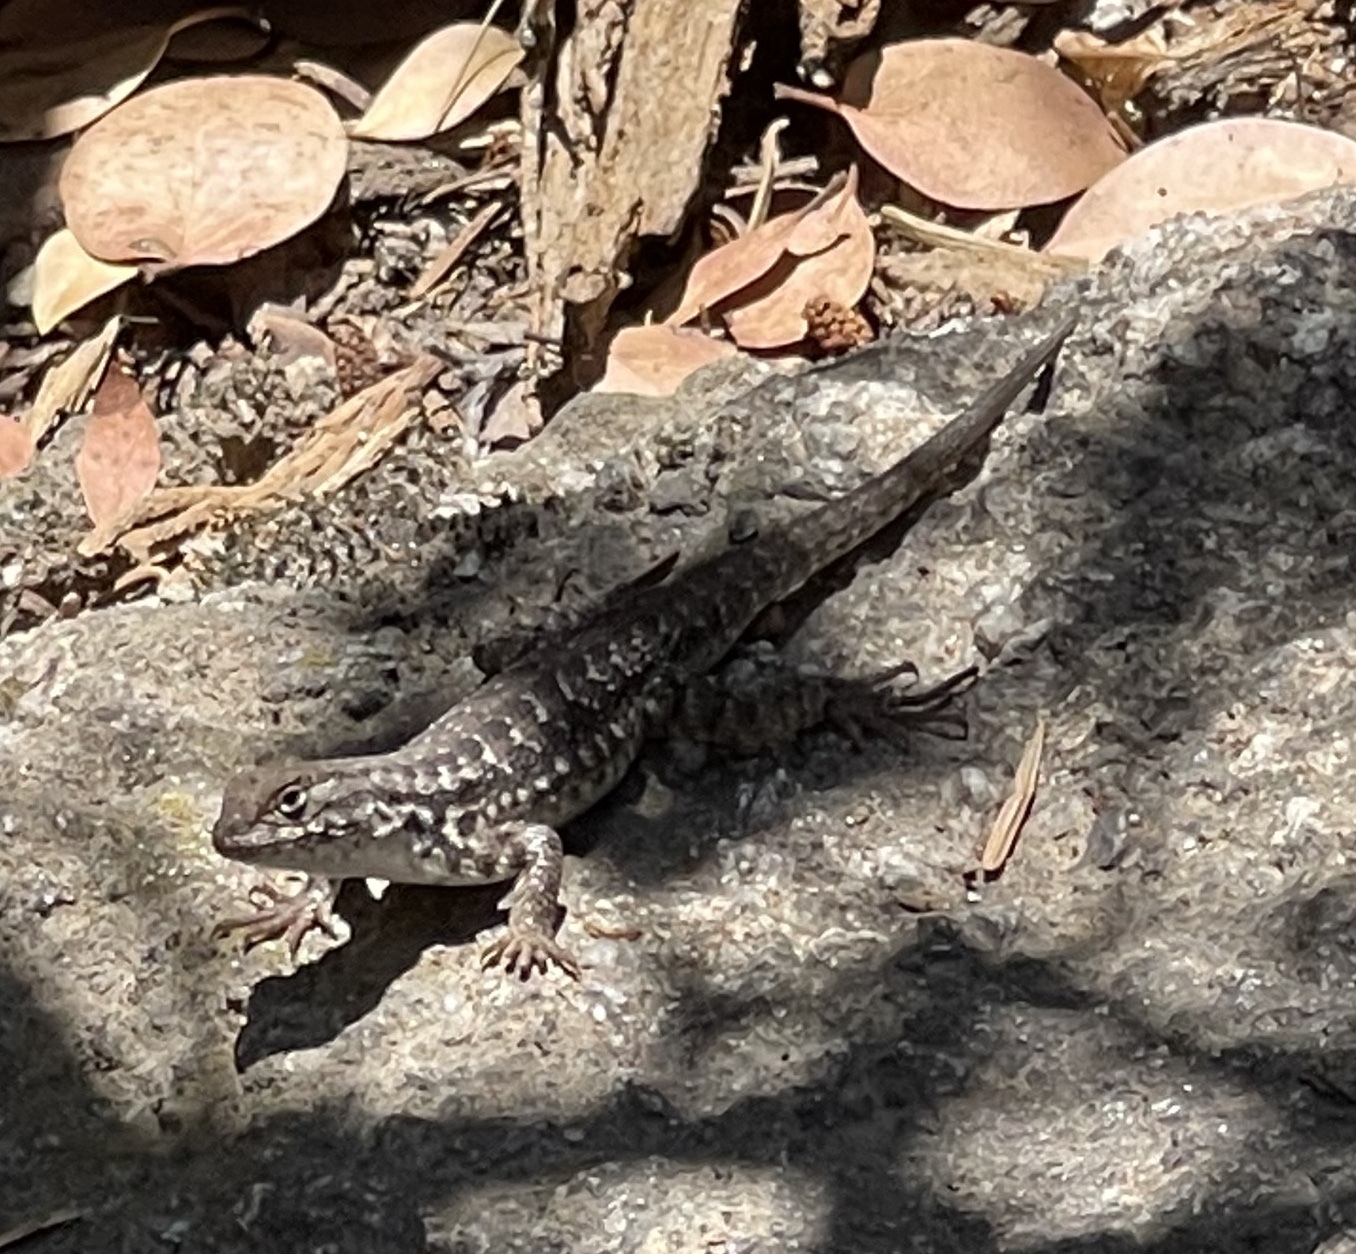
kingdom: Animalia
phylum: Chordata
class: Squamata
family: Phrynosomatidae
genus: Sceloporus
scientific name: Sceloporus graciosus
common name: Sagebrush lizard
